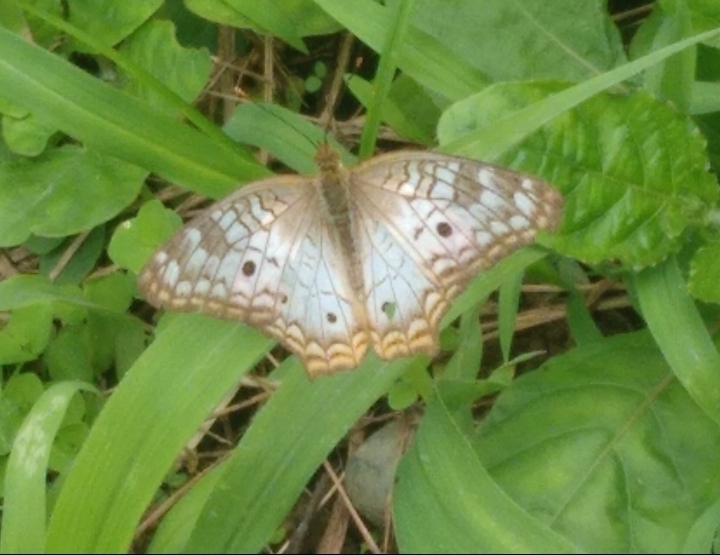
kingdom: Animalia
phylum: Arthropoda
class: Insecta
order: Lepidoptera
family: Nymphalidae
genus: Anartia
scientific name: Anartia jatrophae
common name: White peacock
